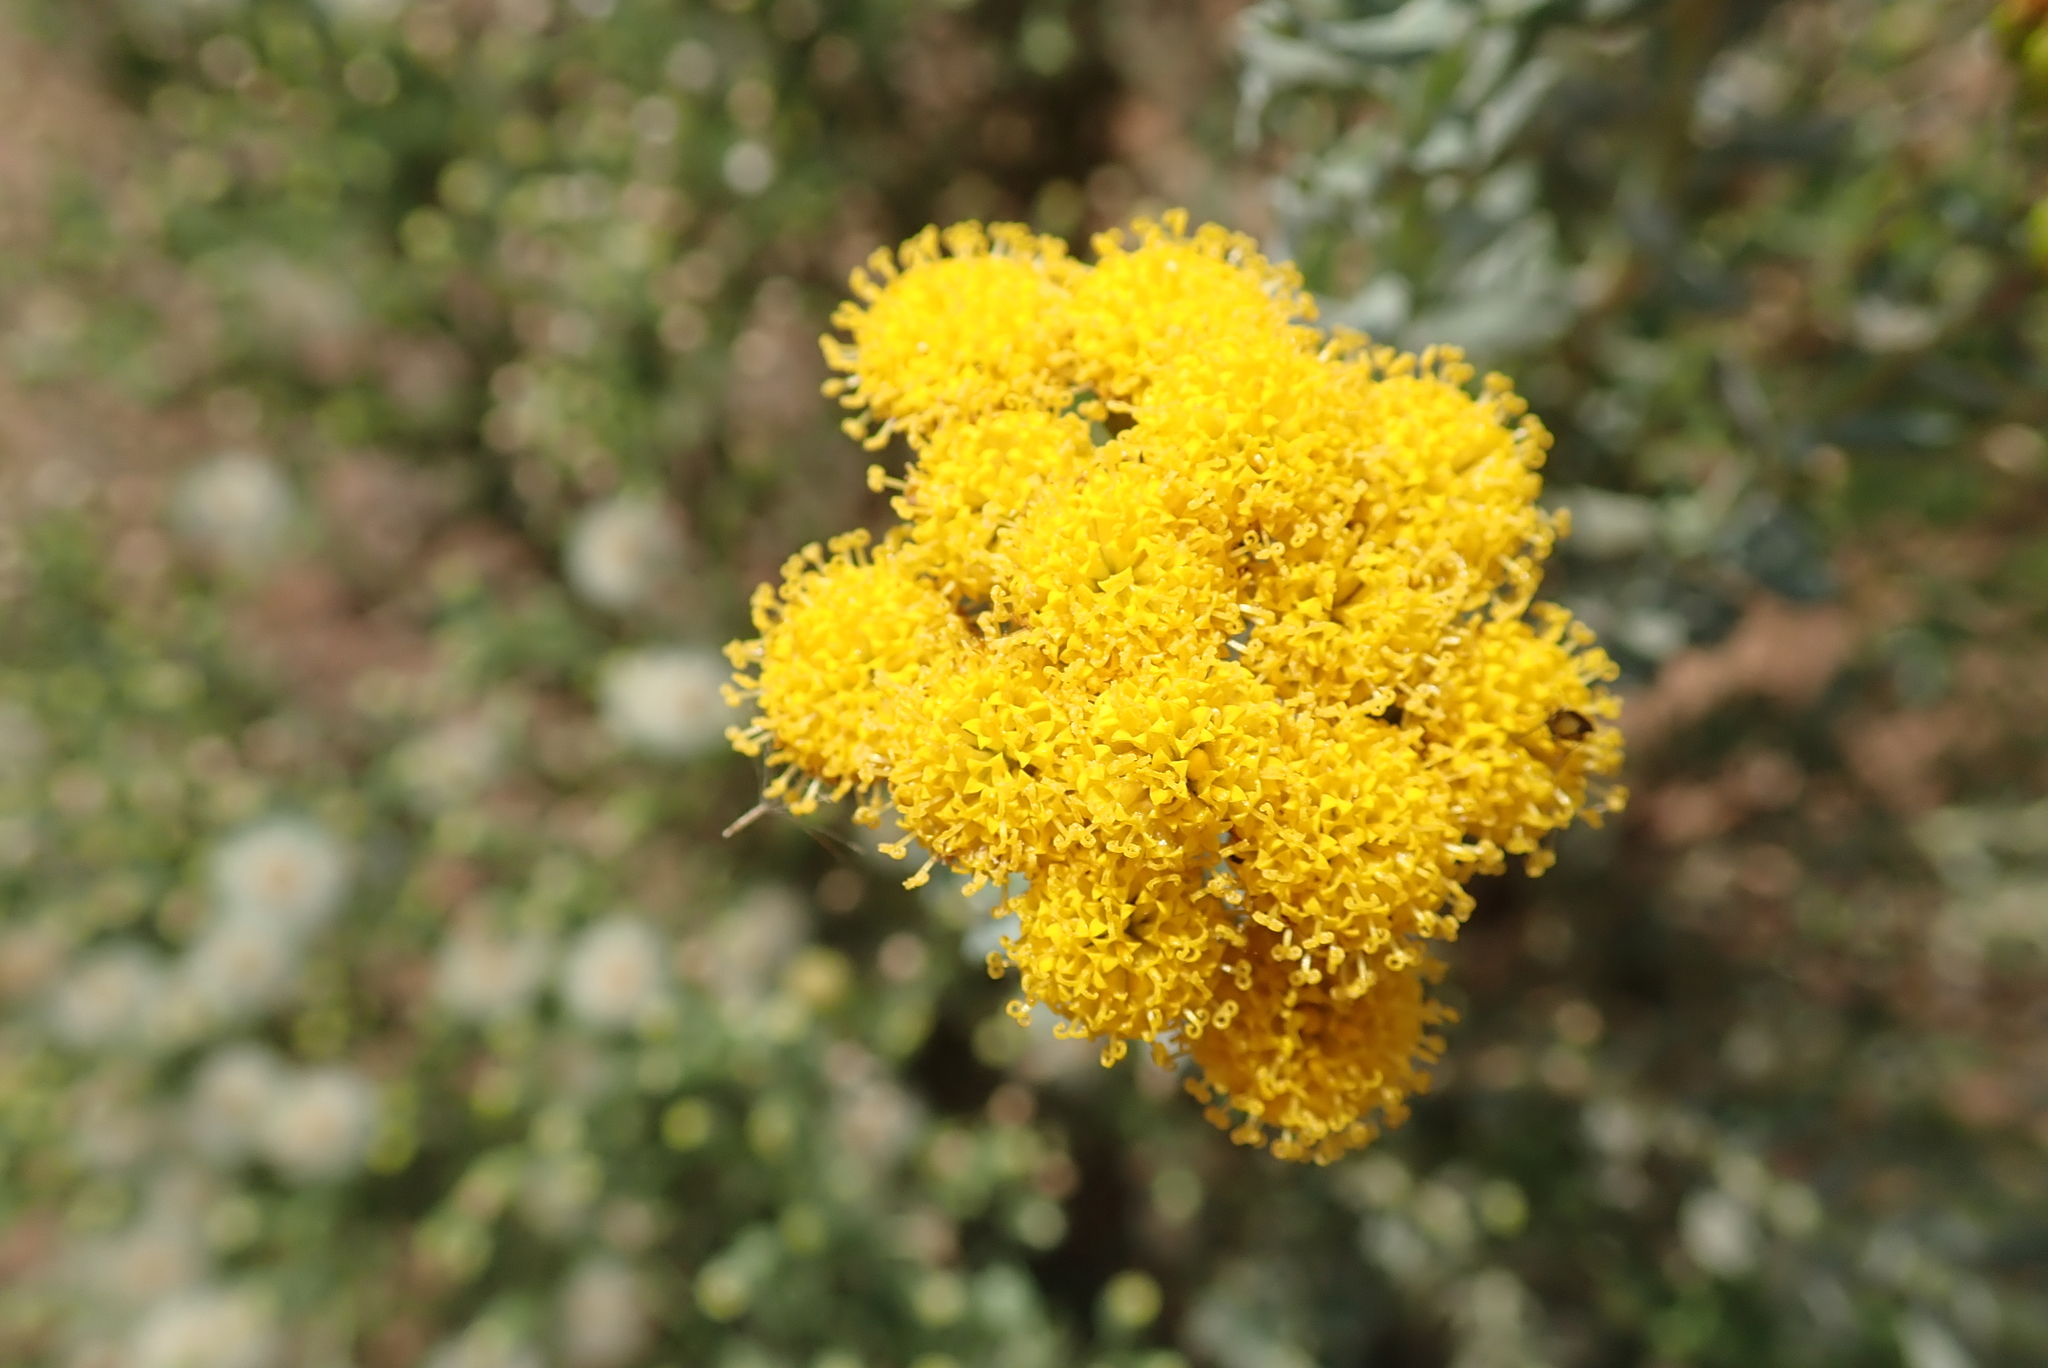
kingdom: Plantae
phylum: Tracheophyta
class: Magnoliopsida
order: Asterales
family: Asteraceae
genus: Athanasia
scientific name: Athanasia trifurcata
